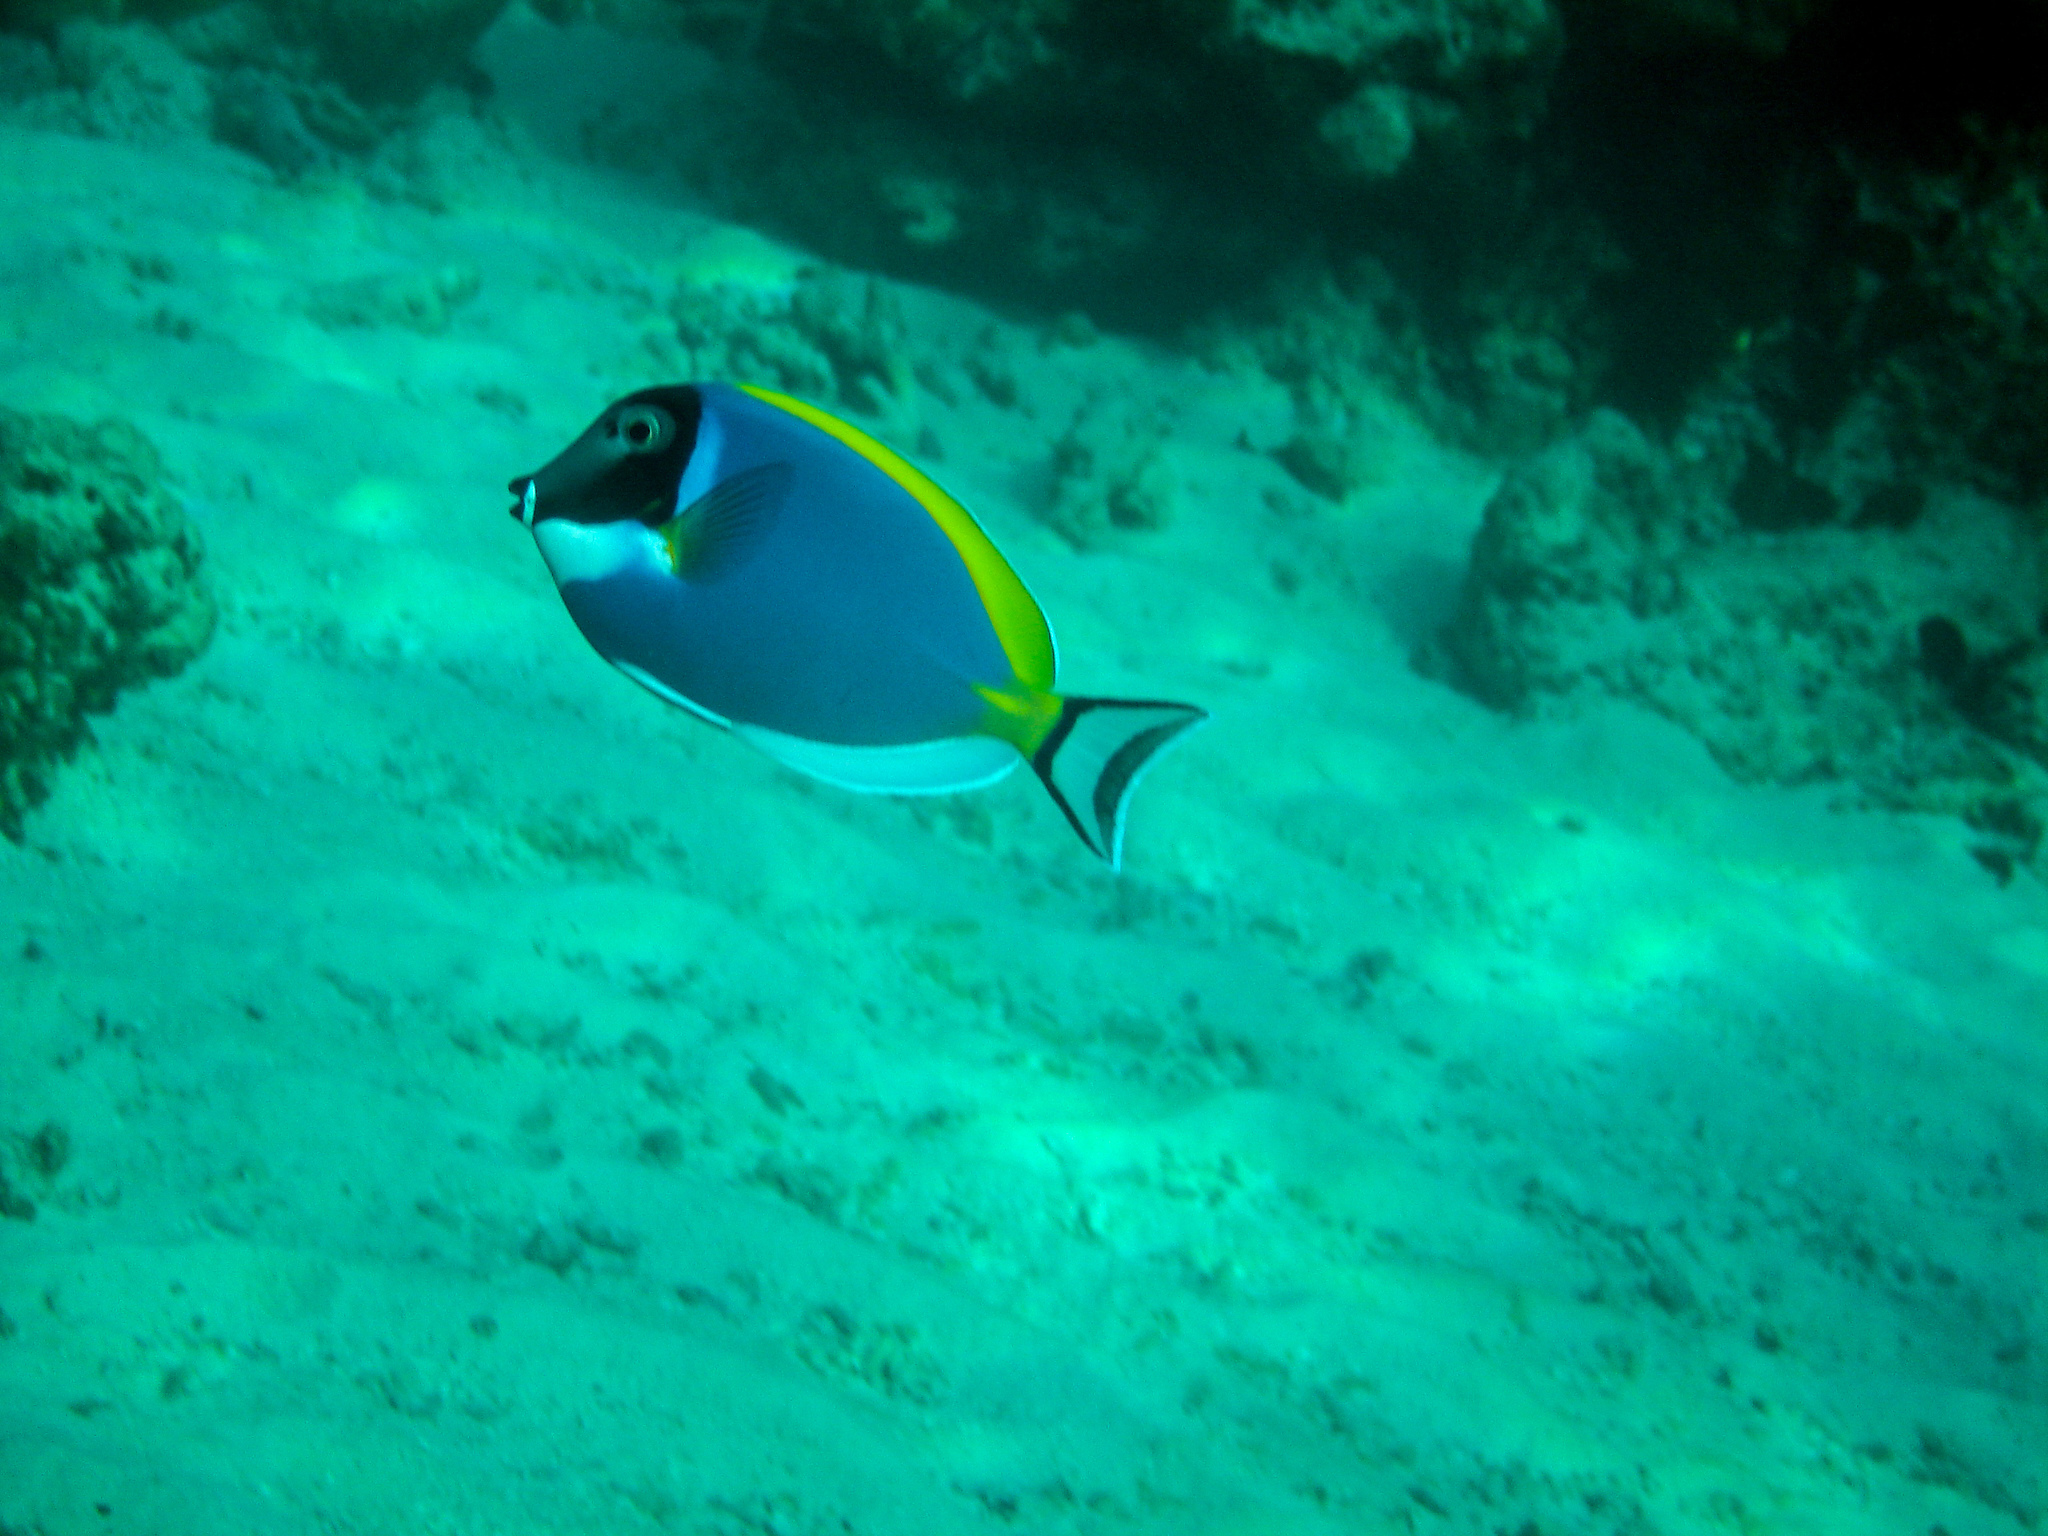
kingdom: Animalia
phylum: Chordata
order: Perciformes
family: Acanthuridae
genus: Acanthurus
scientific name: Acanthurus leucosternon
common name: Blue surgeonfish
